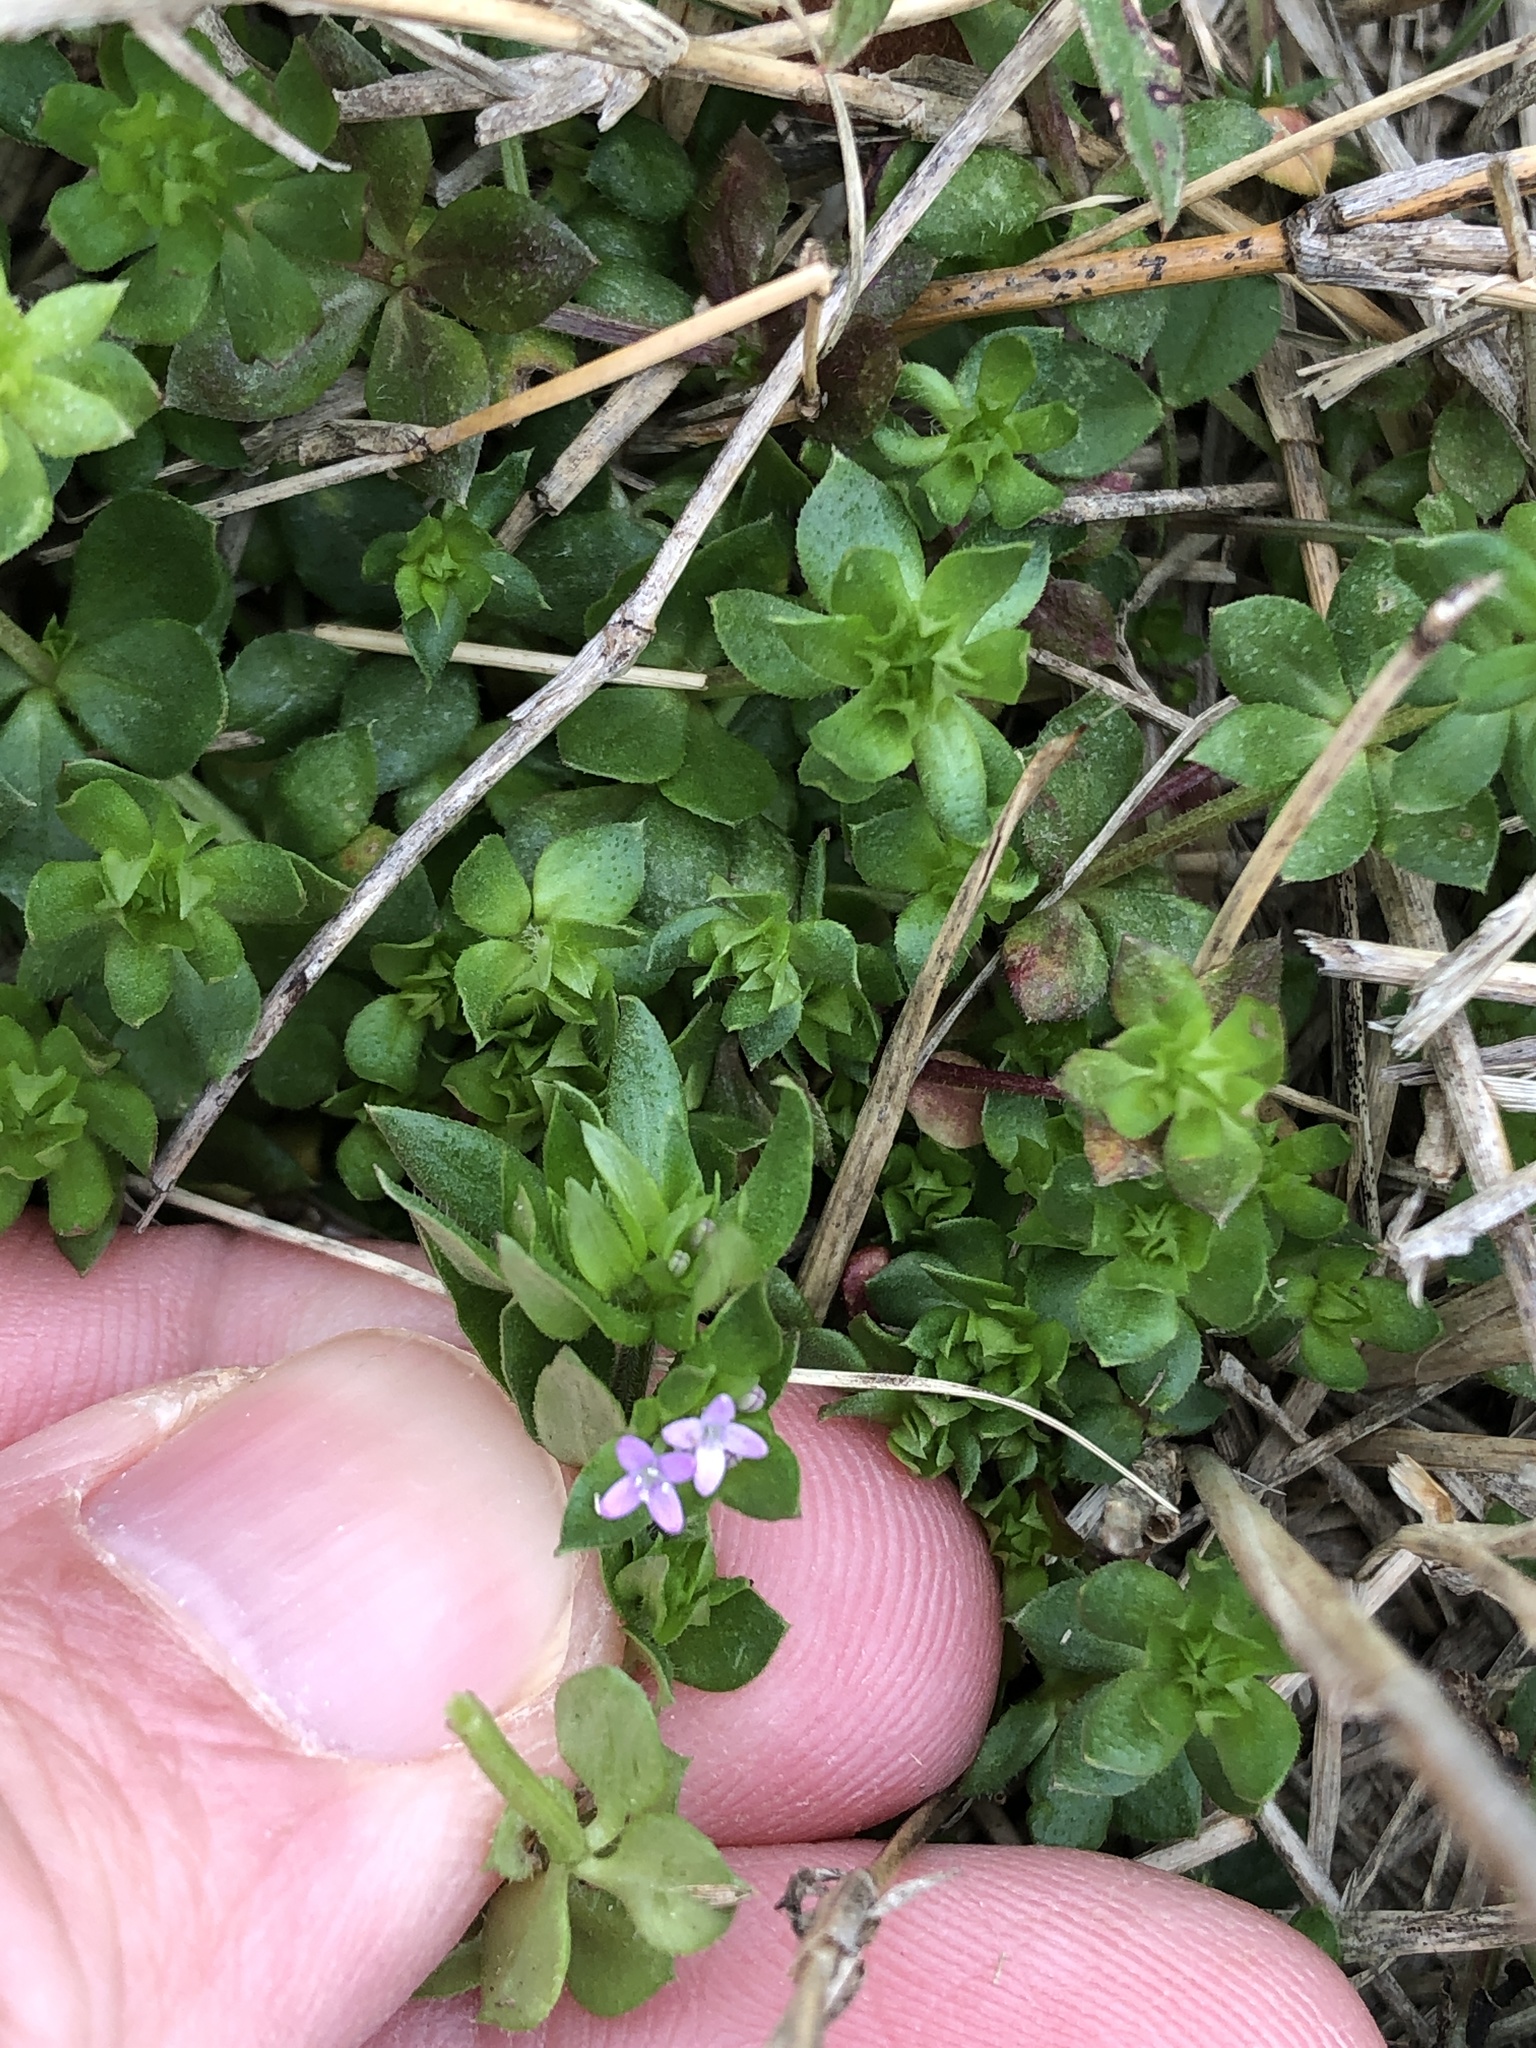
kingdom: Plantae
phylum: Tracheophyta
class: Magnoliopsida
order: Gentianales
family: Rubiaceae
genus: Sherardia
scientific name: Sherardia arvensis
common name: Field madder
